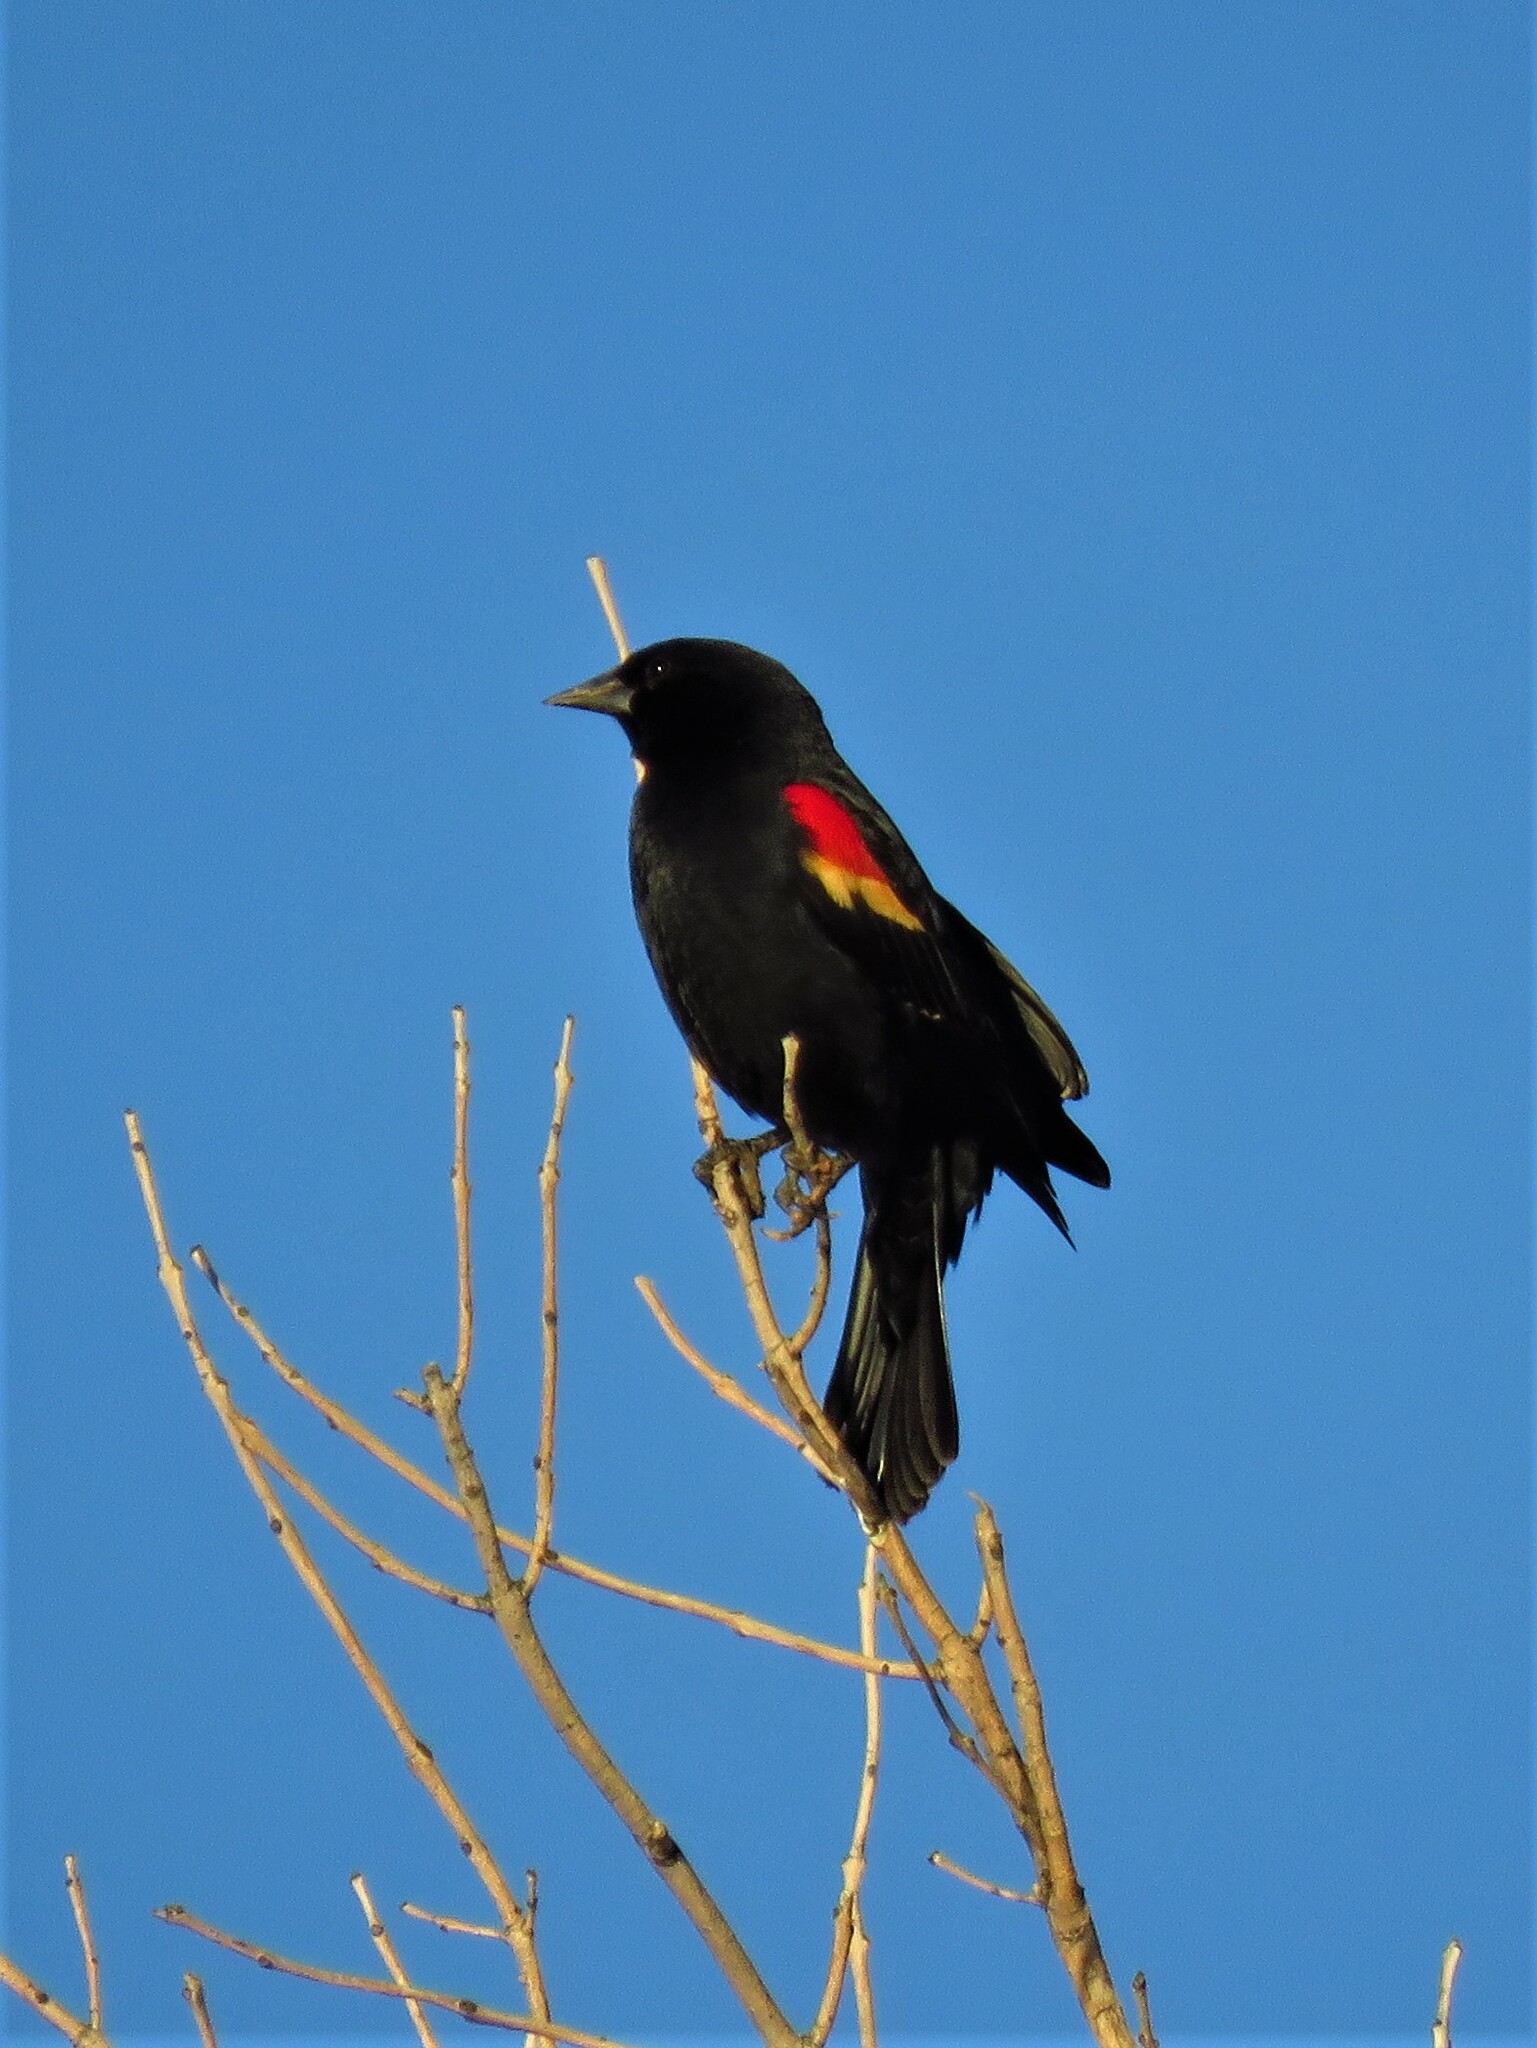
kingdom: Animalia
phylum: Chordata
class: Aves
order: Passeriformes
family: Icteridae
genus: Agelaius
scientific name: Agelaius phoeniceus
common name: Red-winged blackbird
